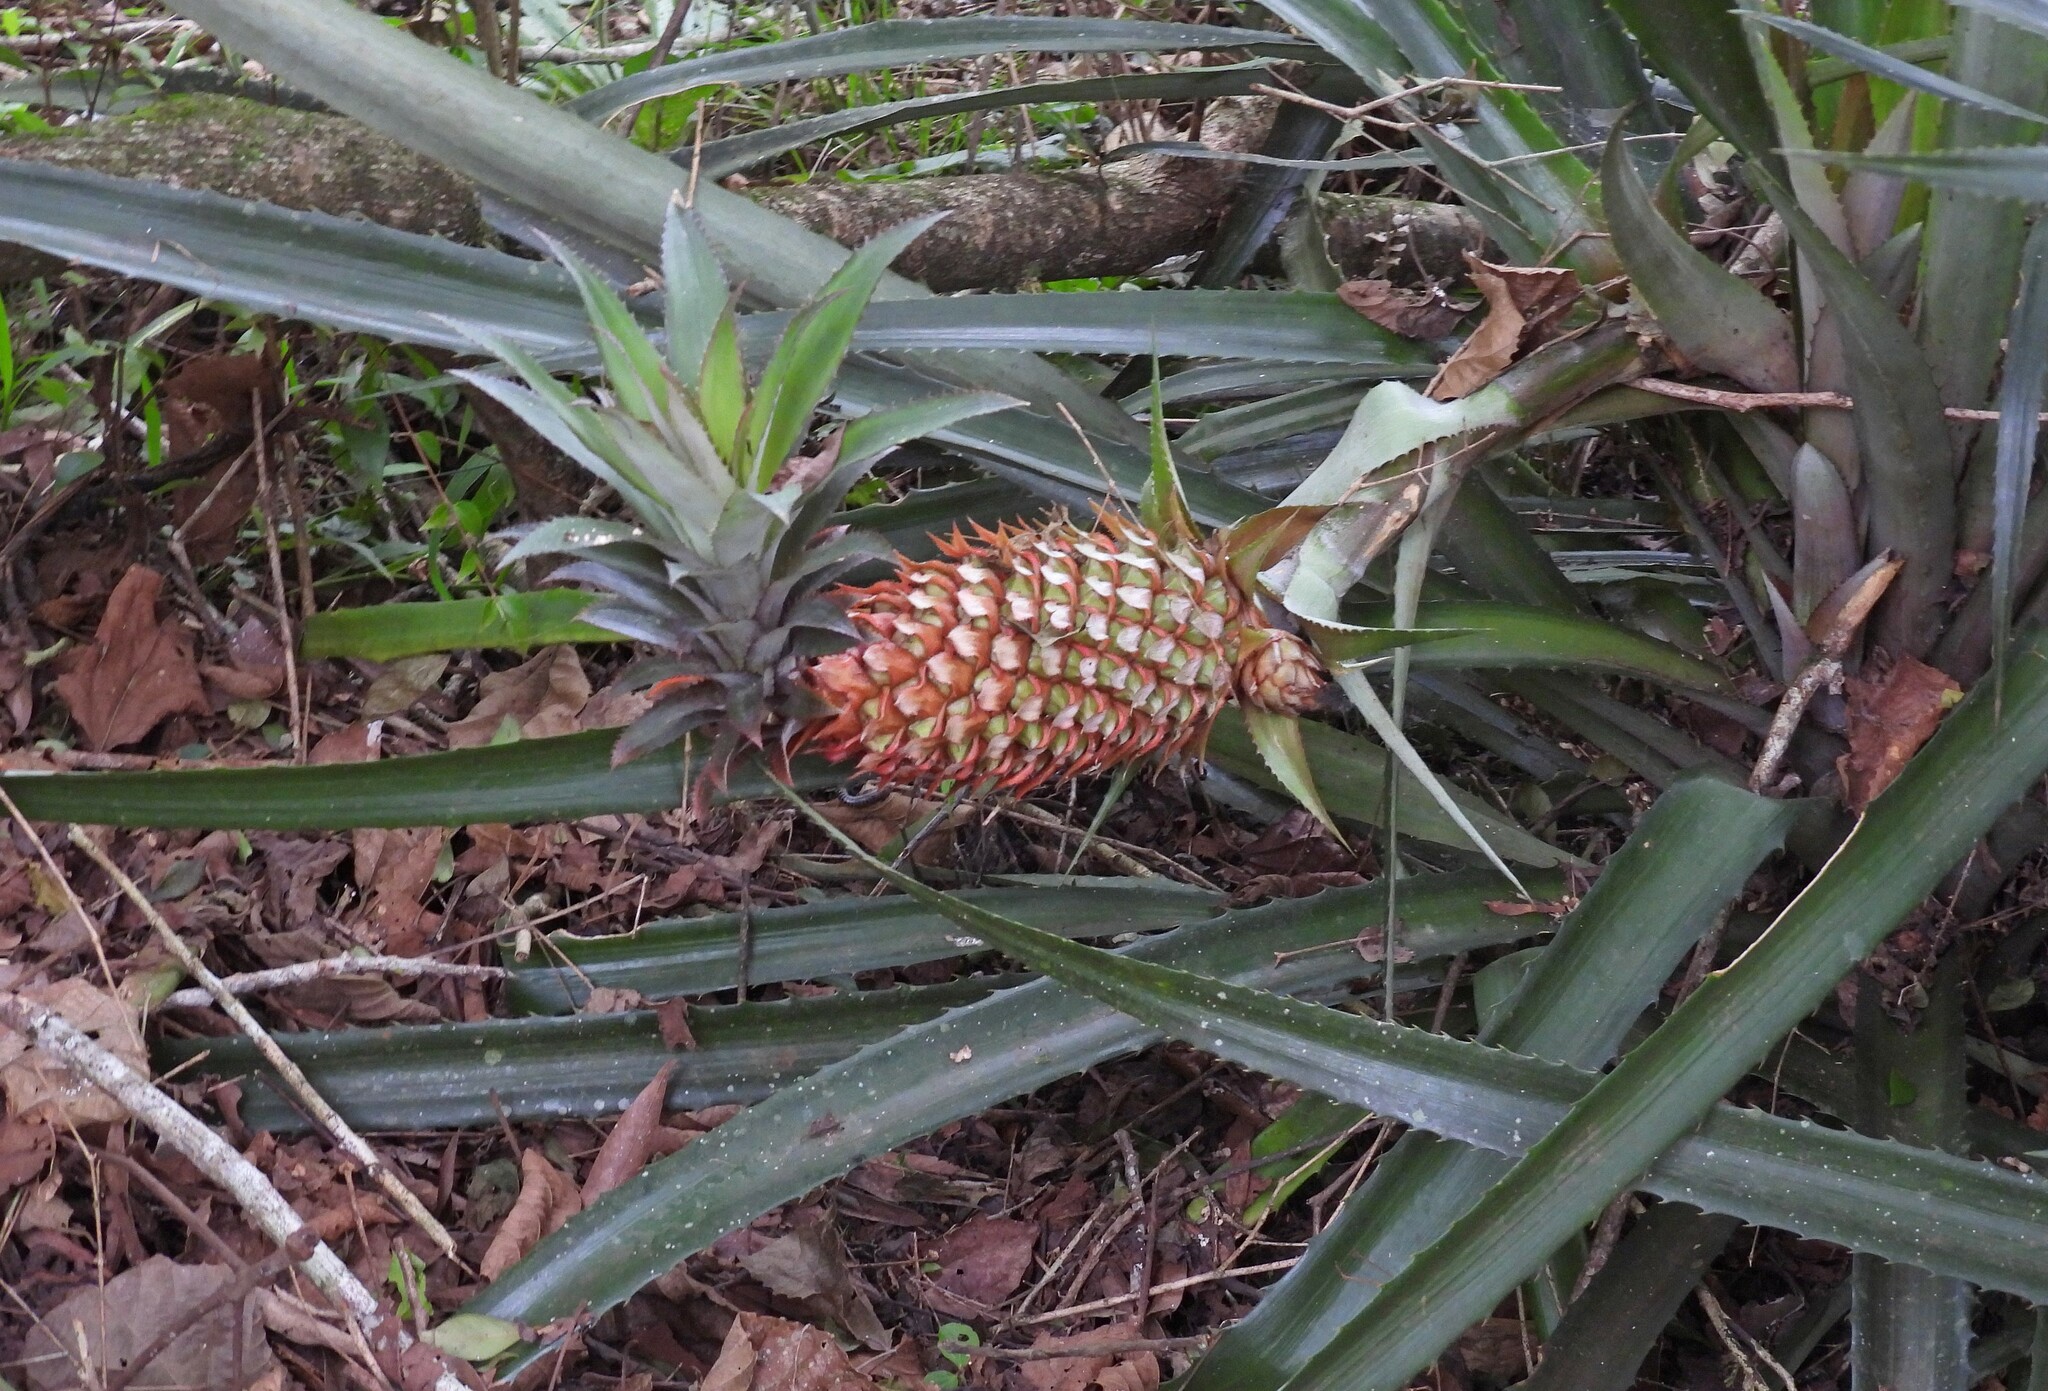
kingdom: Plantae
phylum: Tracheophyta
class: Liliopsida
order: Poales
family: Bromeliaceae
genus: Ananas
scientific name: Ananas comosus
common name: Pineapple
